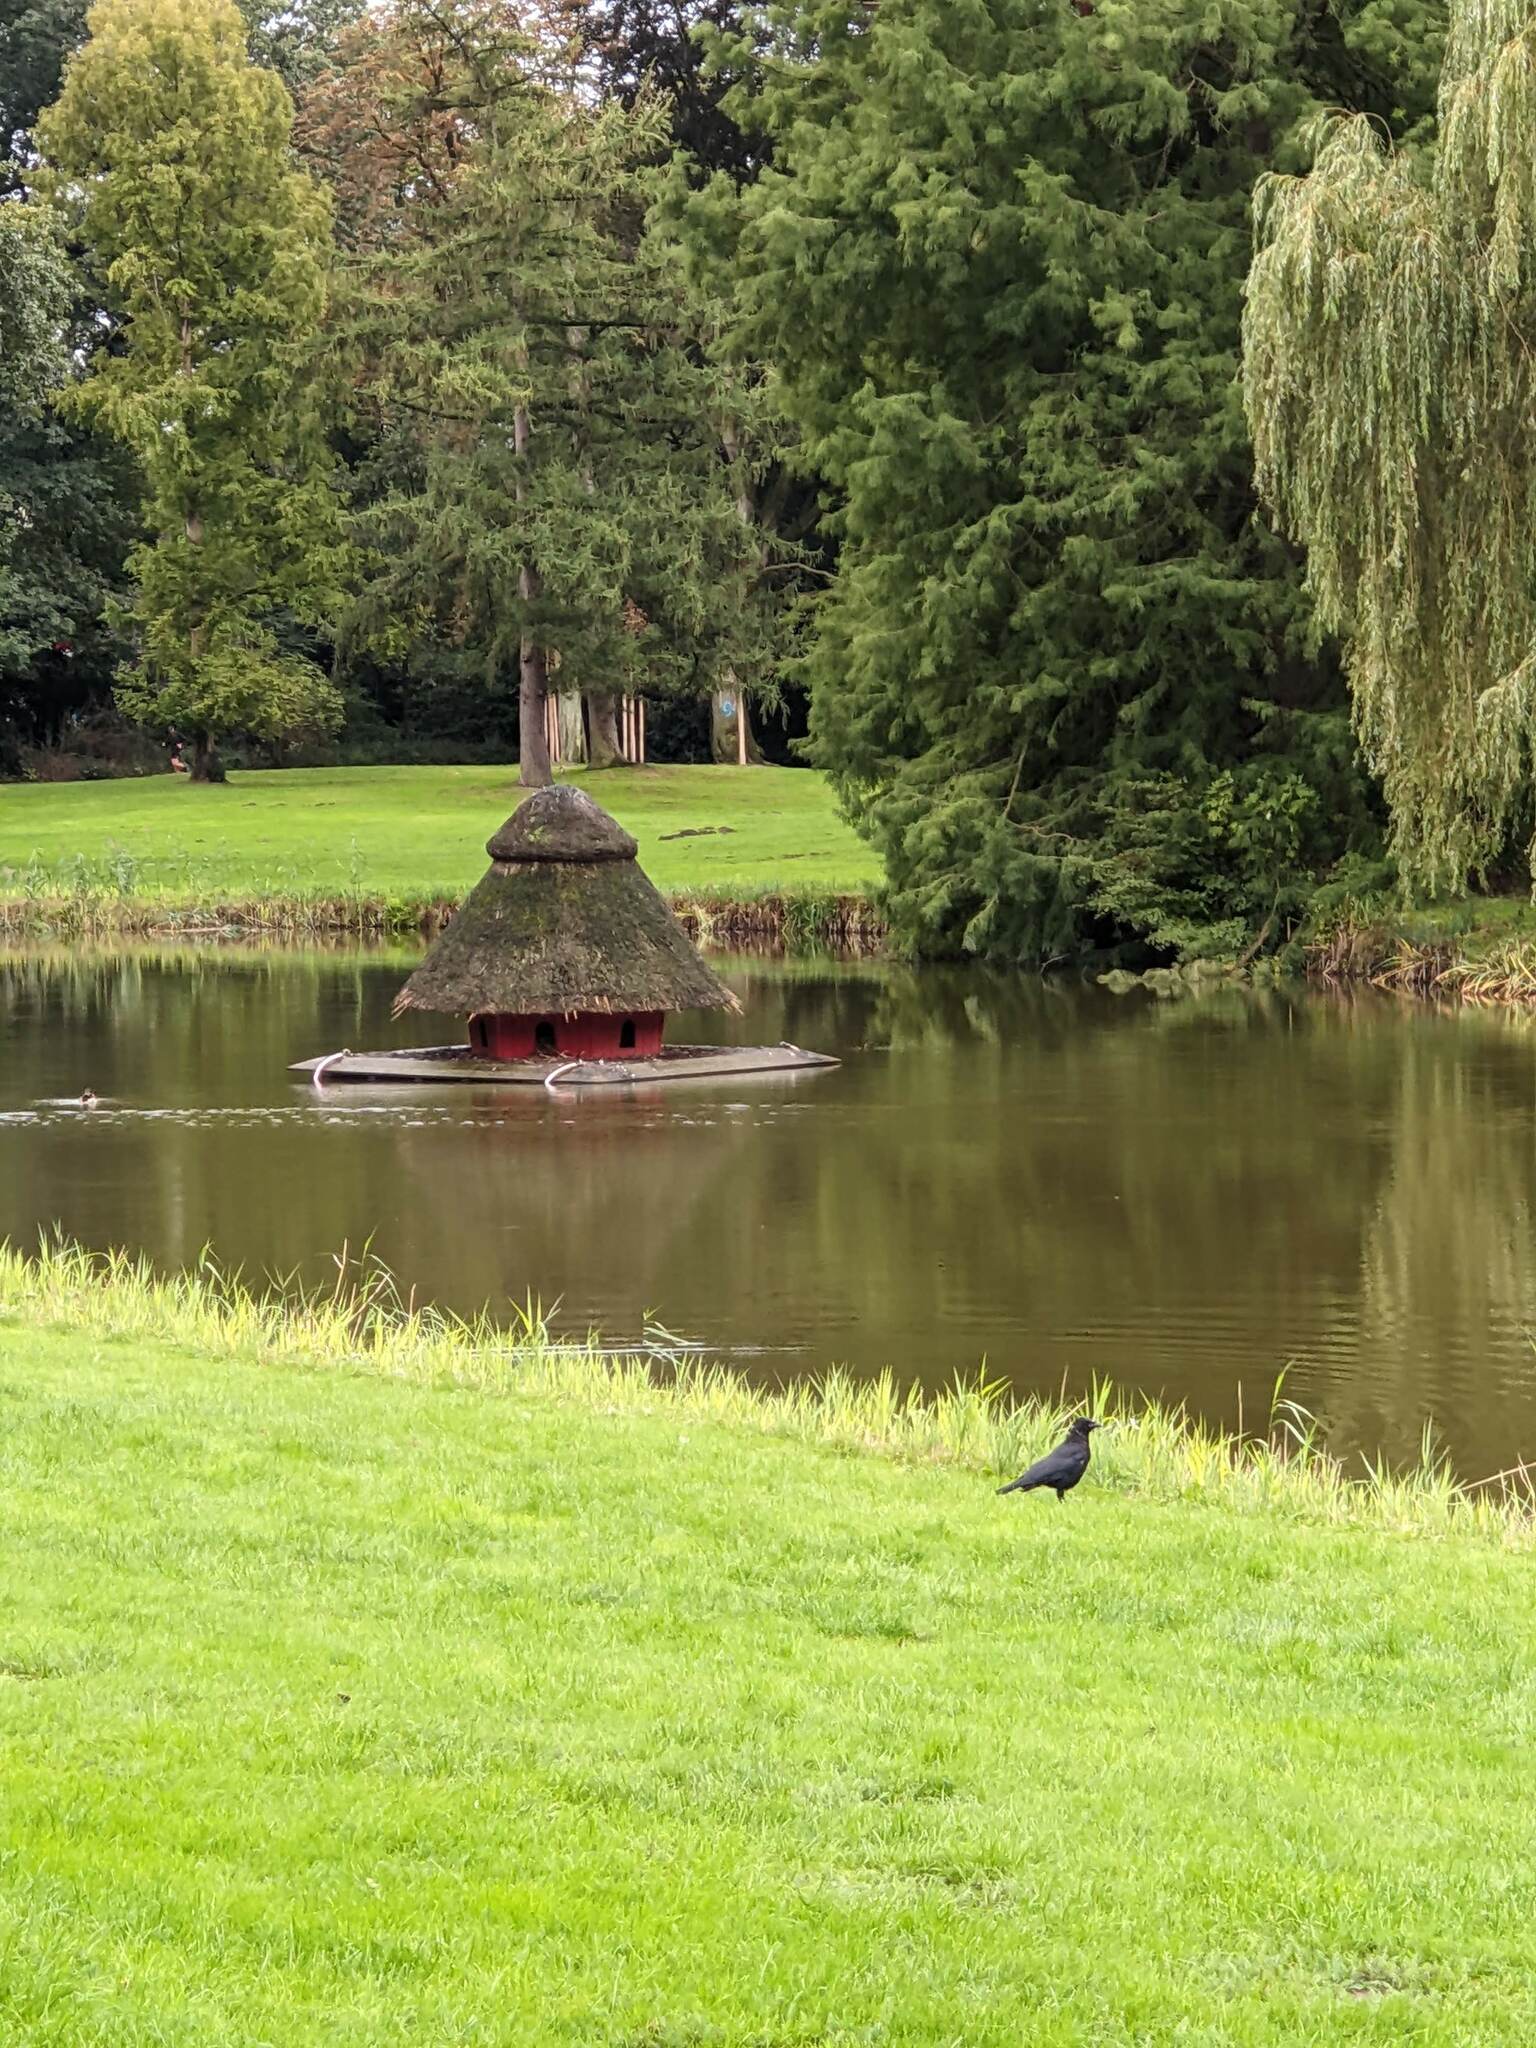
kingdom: Animalia
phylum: Chordata
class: Aves
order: Passeriformes
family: Corvidae
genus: Corvus
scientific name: Corvus corone
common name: Carrion crow
